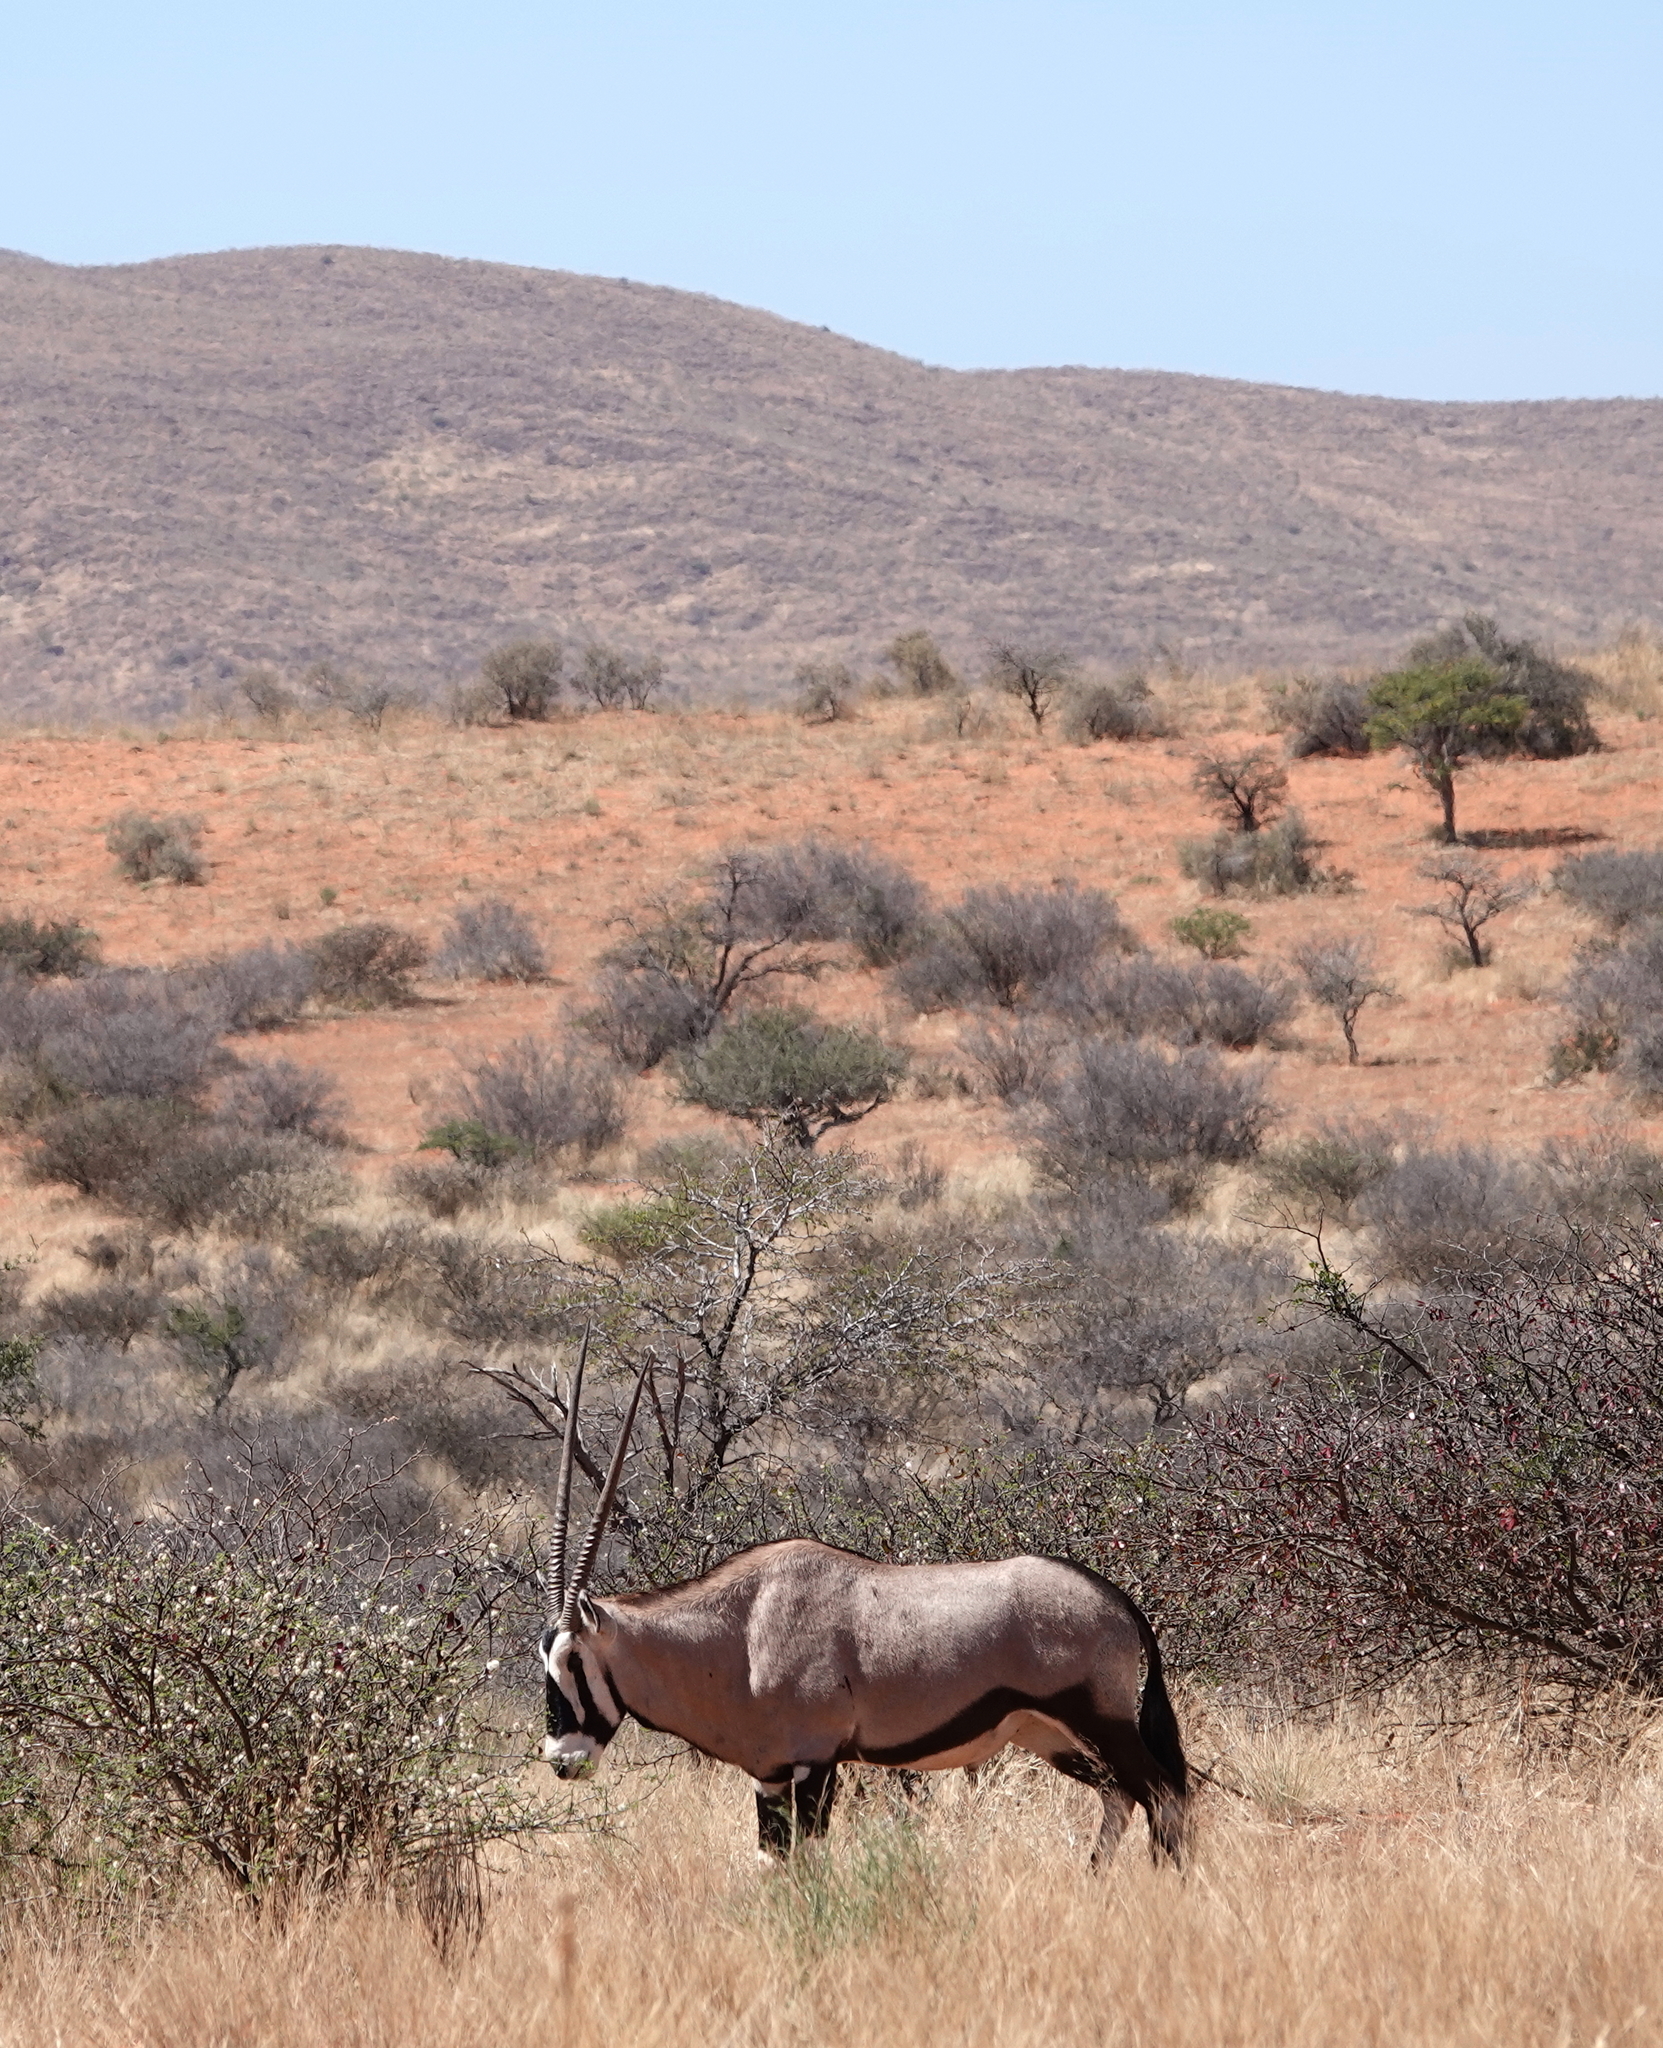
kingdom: Animalia
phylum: Chordata
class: Mammalia
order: Artiodactyla
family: Bovidae
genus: Oryx
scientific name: Oryx gazella
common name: Gemsbok
